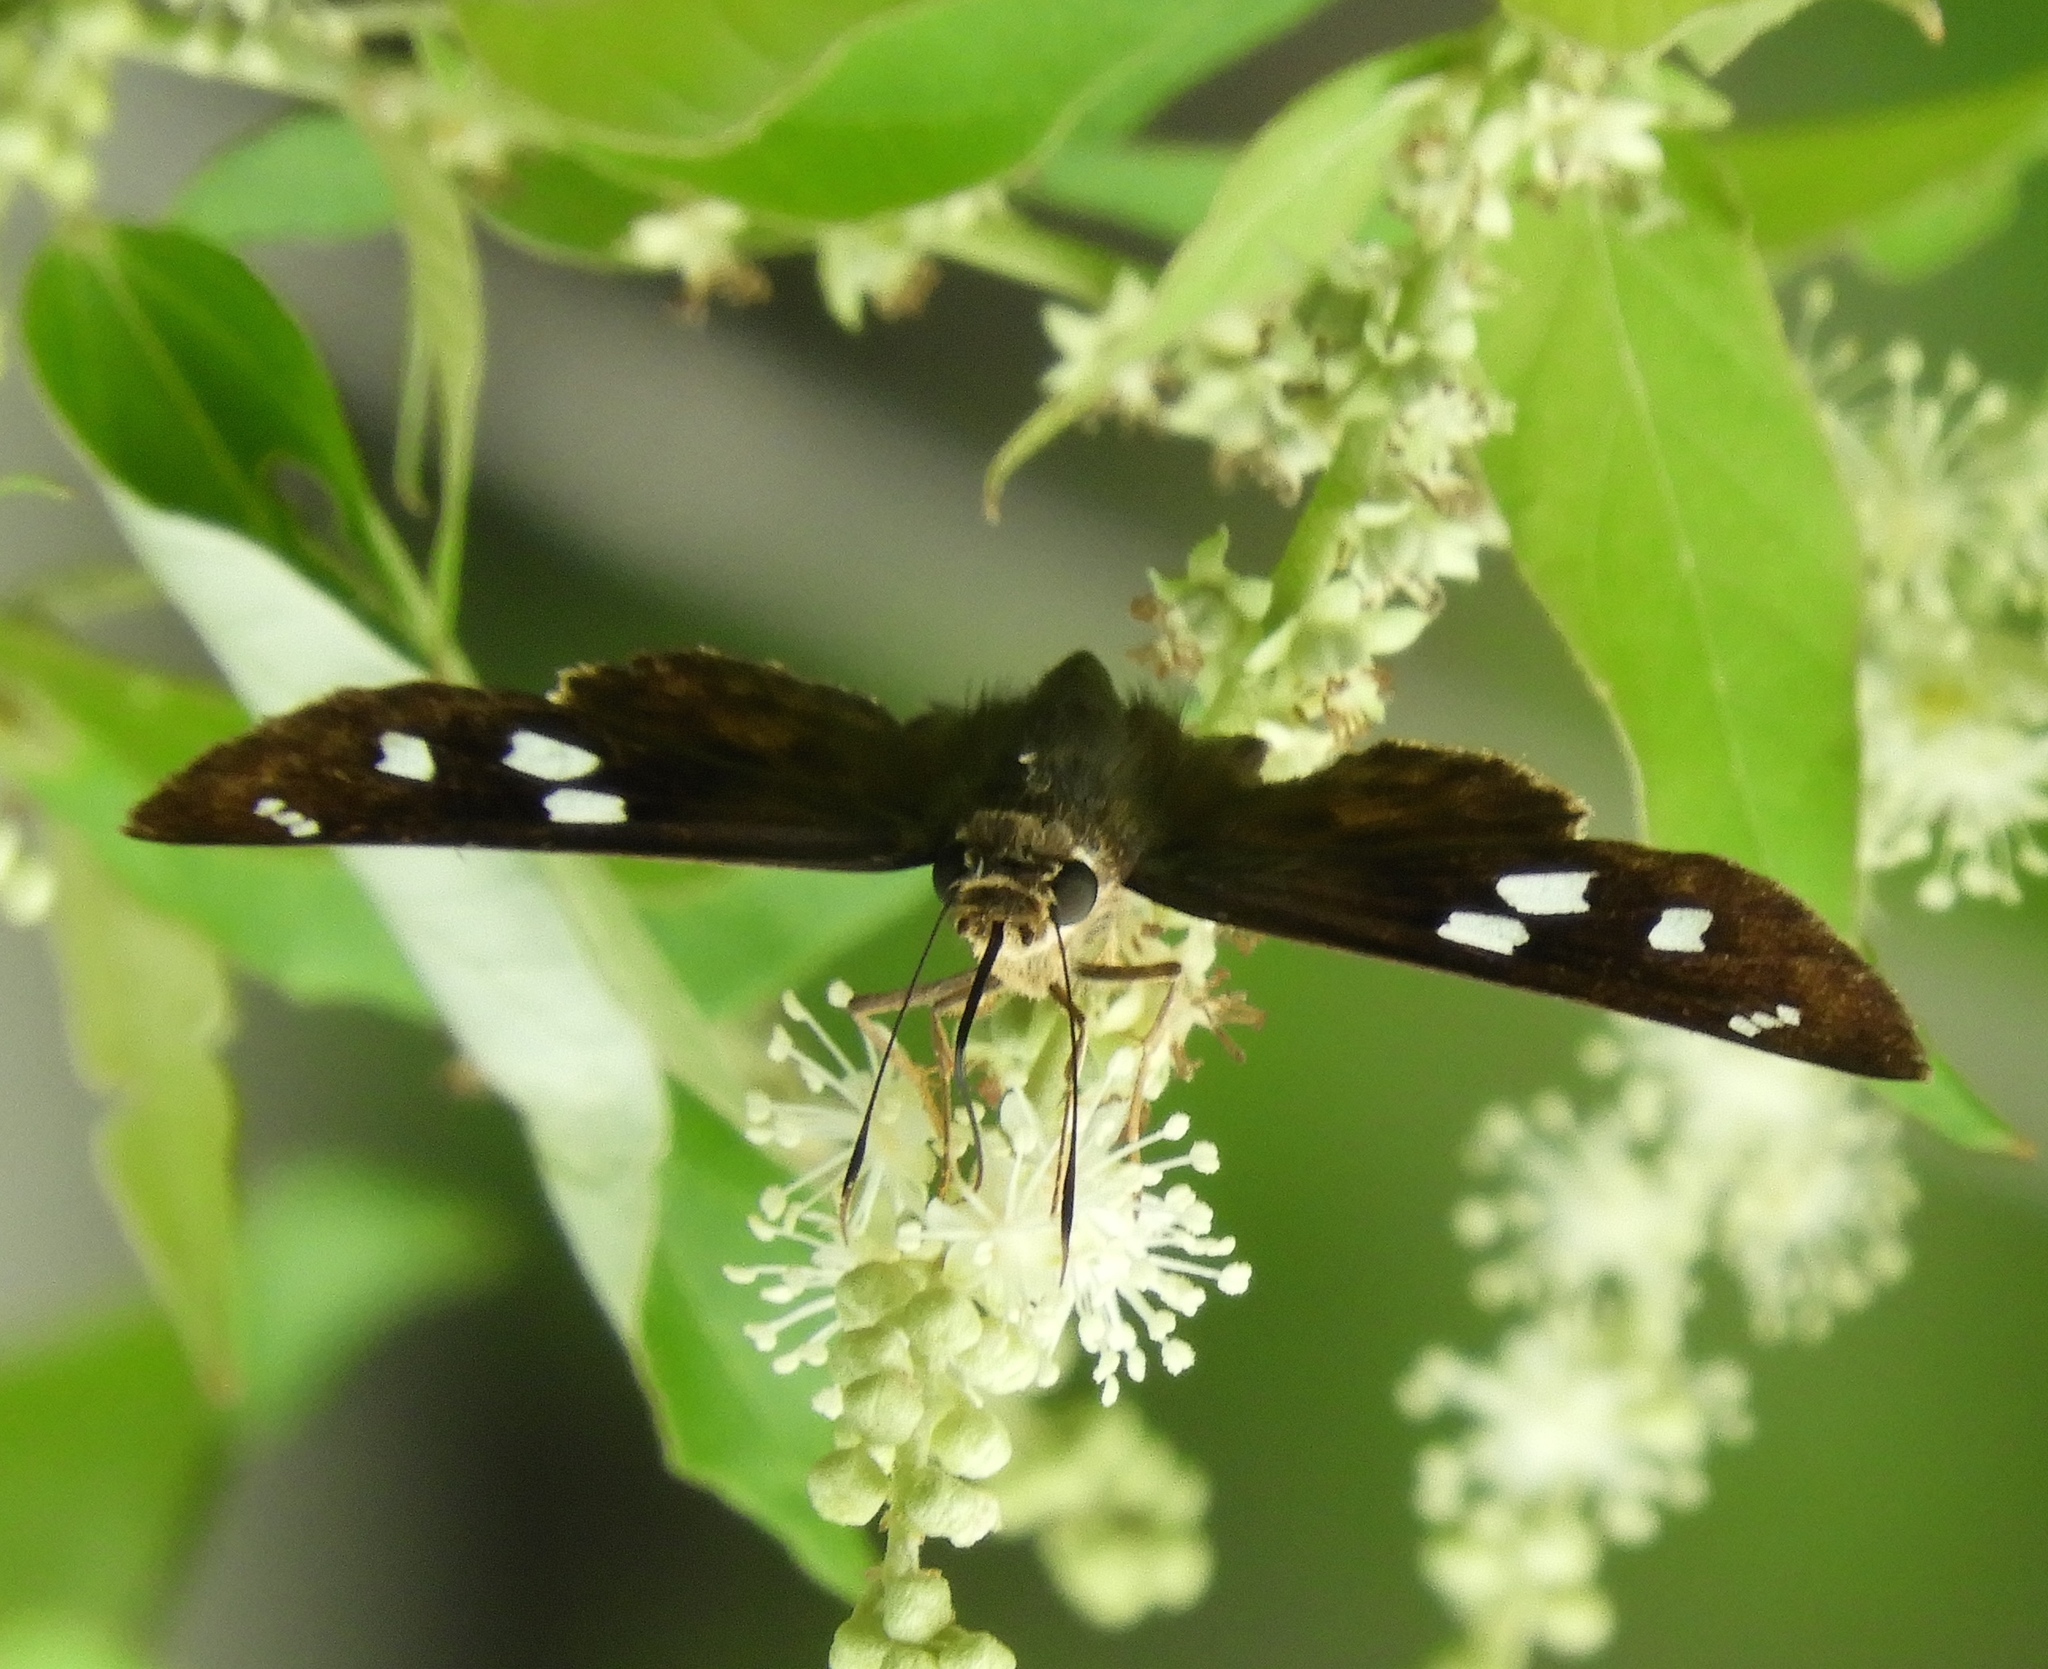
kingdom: Animalia
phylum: Arthropoda
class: Insecta
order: Lepidoptera
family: Hesperiidae
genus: Polygonus
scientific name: Polygonus leo
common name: Hammoch skipper
